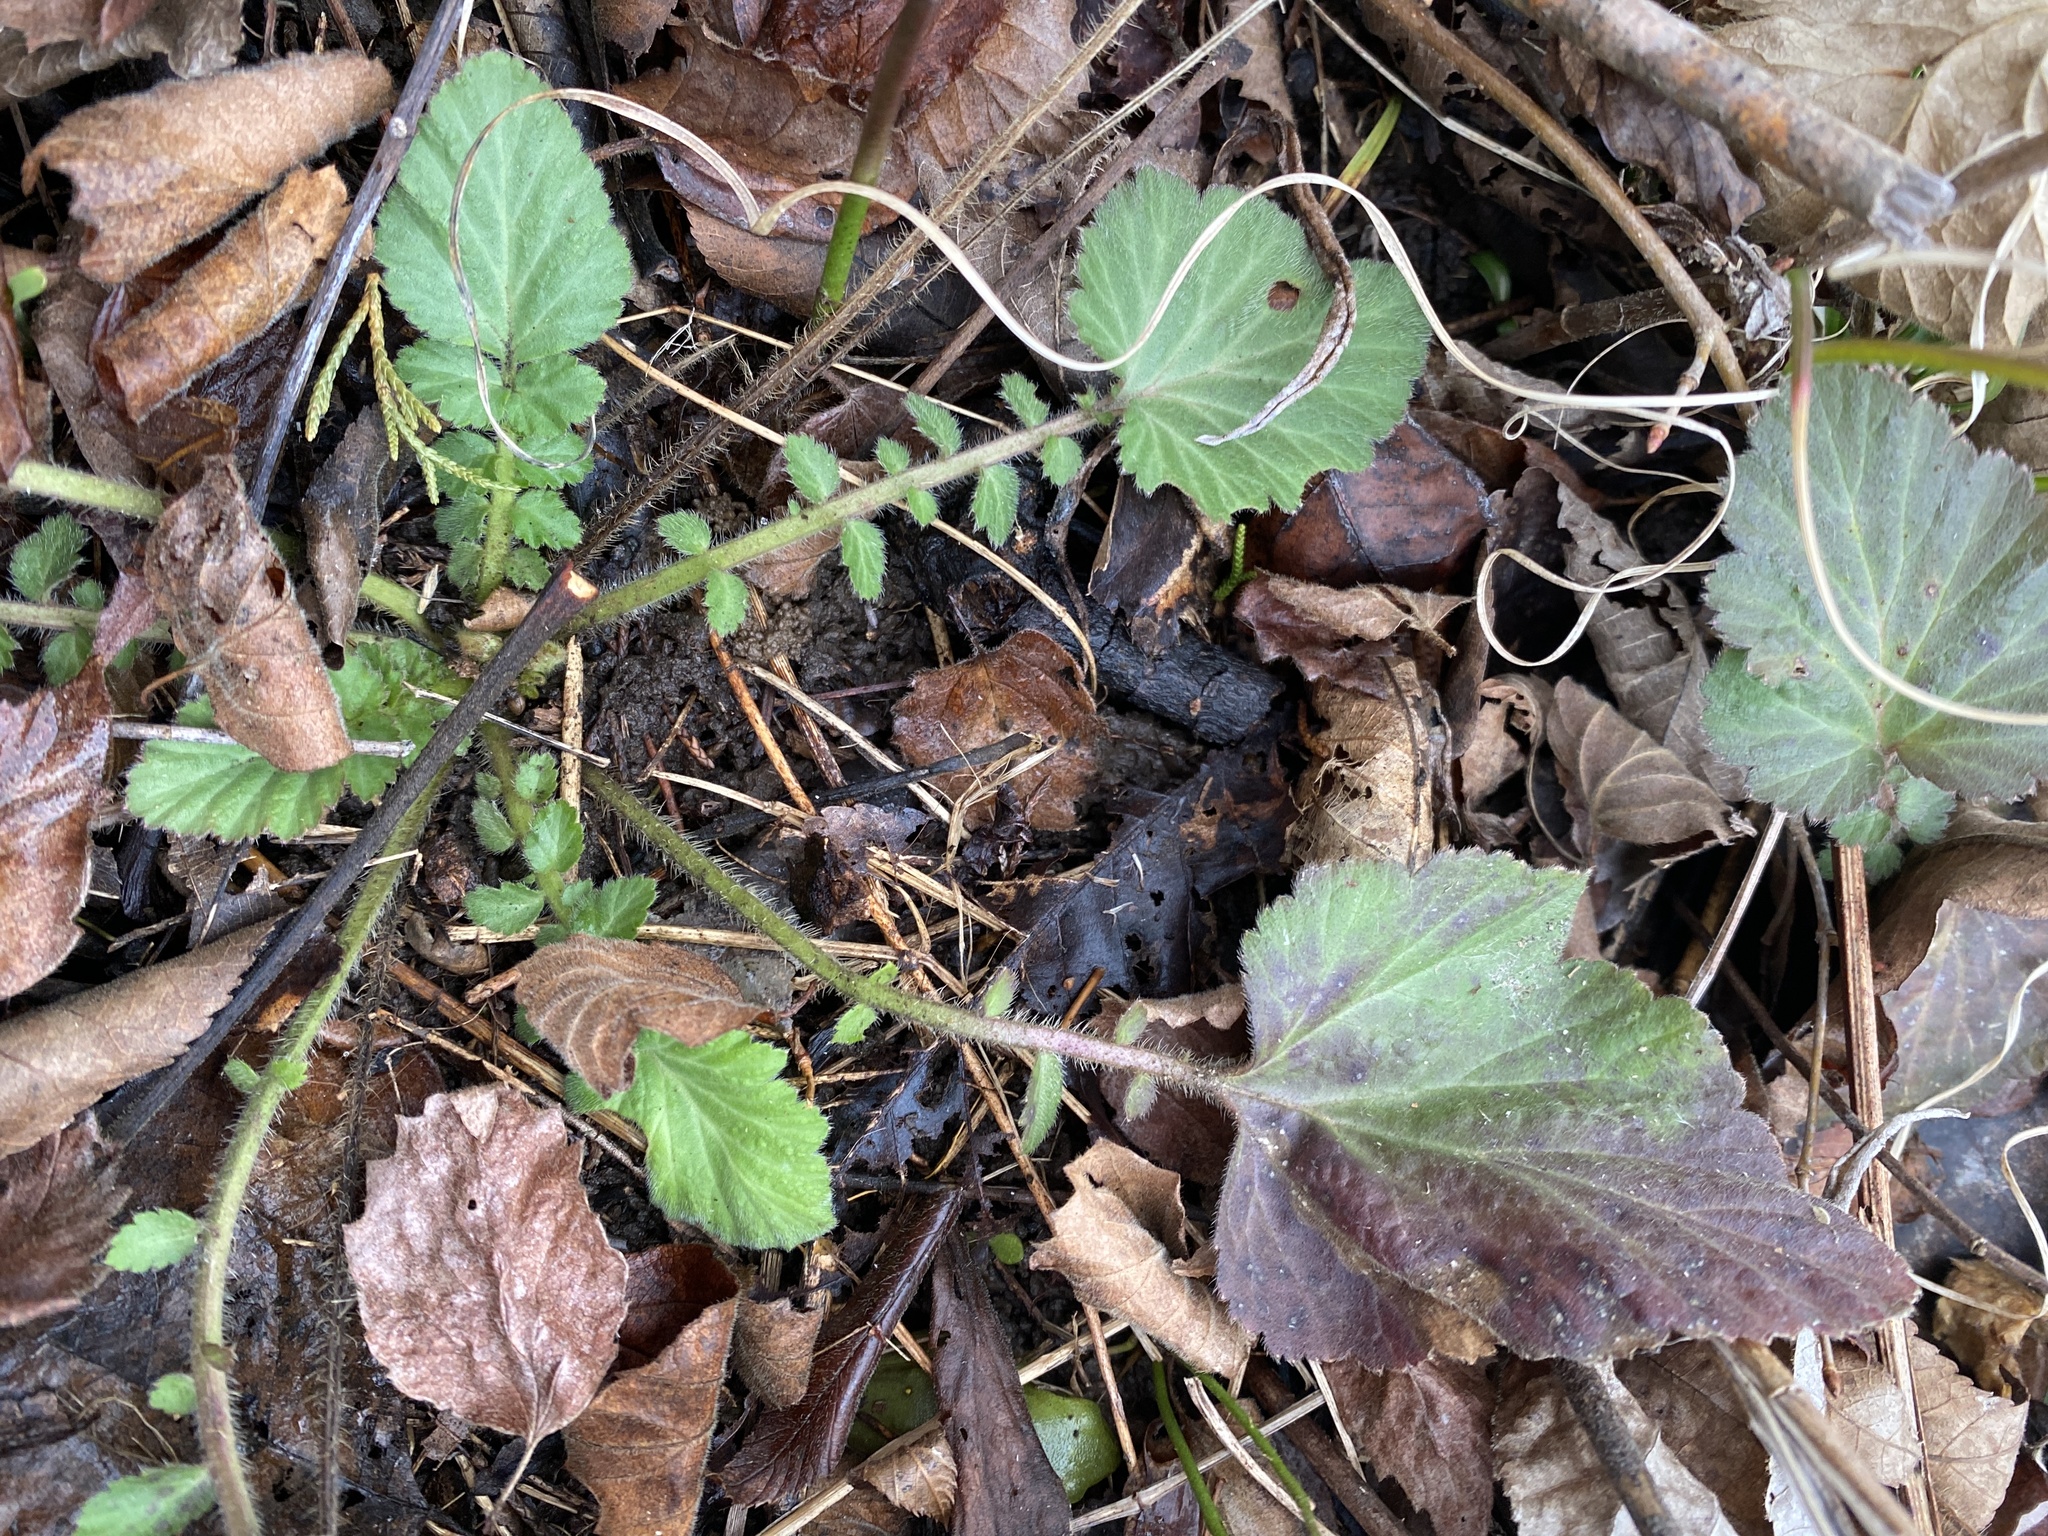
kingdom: Plantae
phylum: Tracheophyta
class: Magnoliopsida
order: Rosales
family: Rosaceae
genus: Geum
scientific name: Geum canadense
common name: White avens
